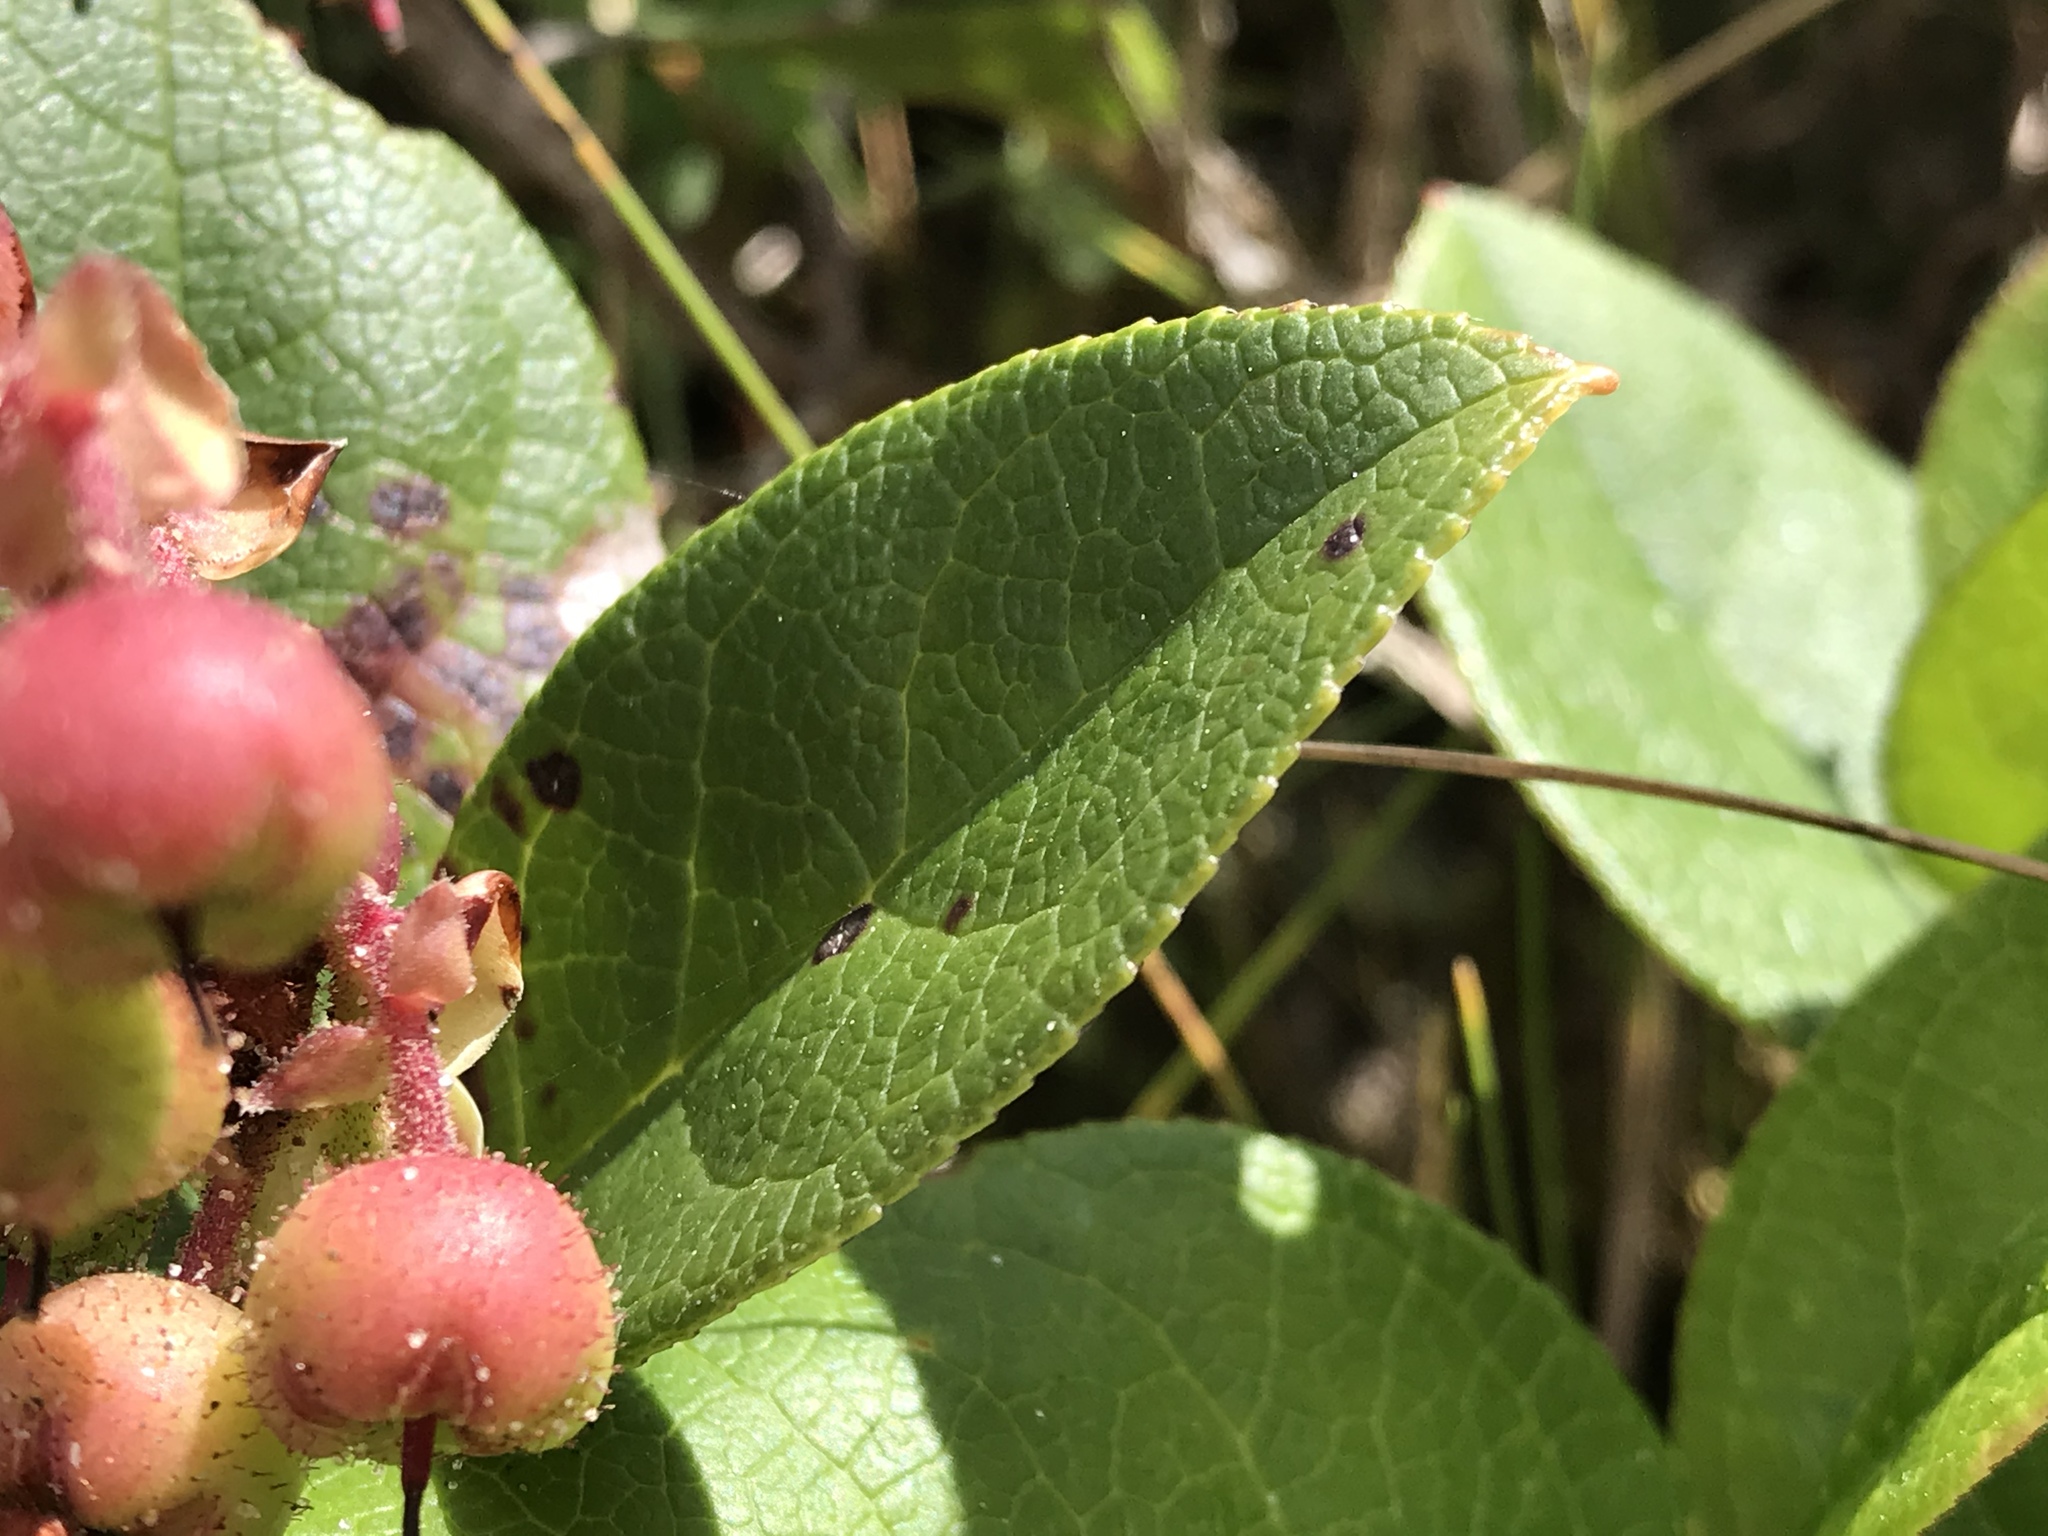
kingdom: Plantae
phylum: Tracheophyta
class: Magnoliopsida
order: Ericales
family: Ericaceae
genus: Gaultheria
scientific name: Gaultheria shallon
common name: Shallon
